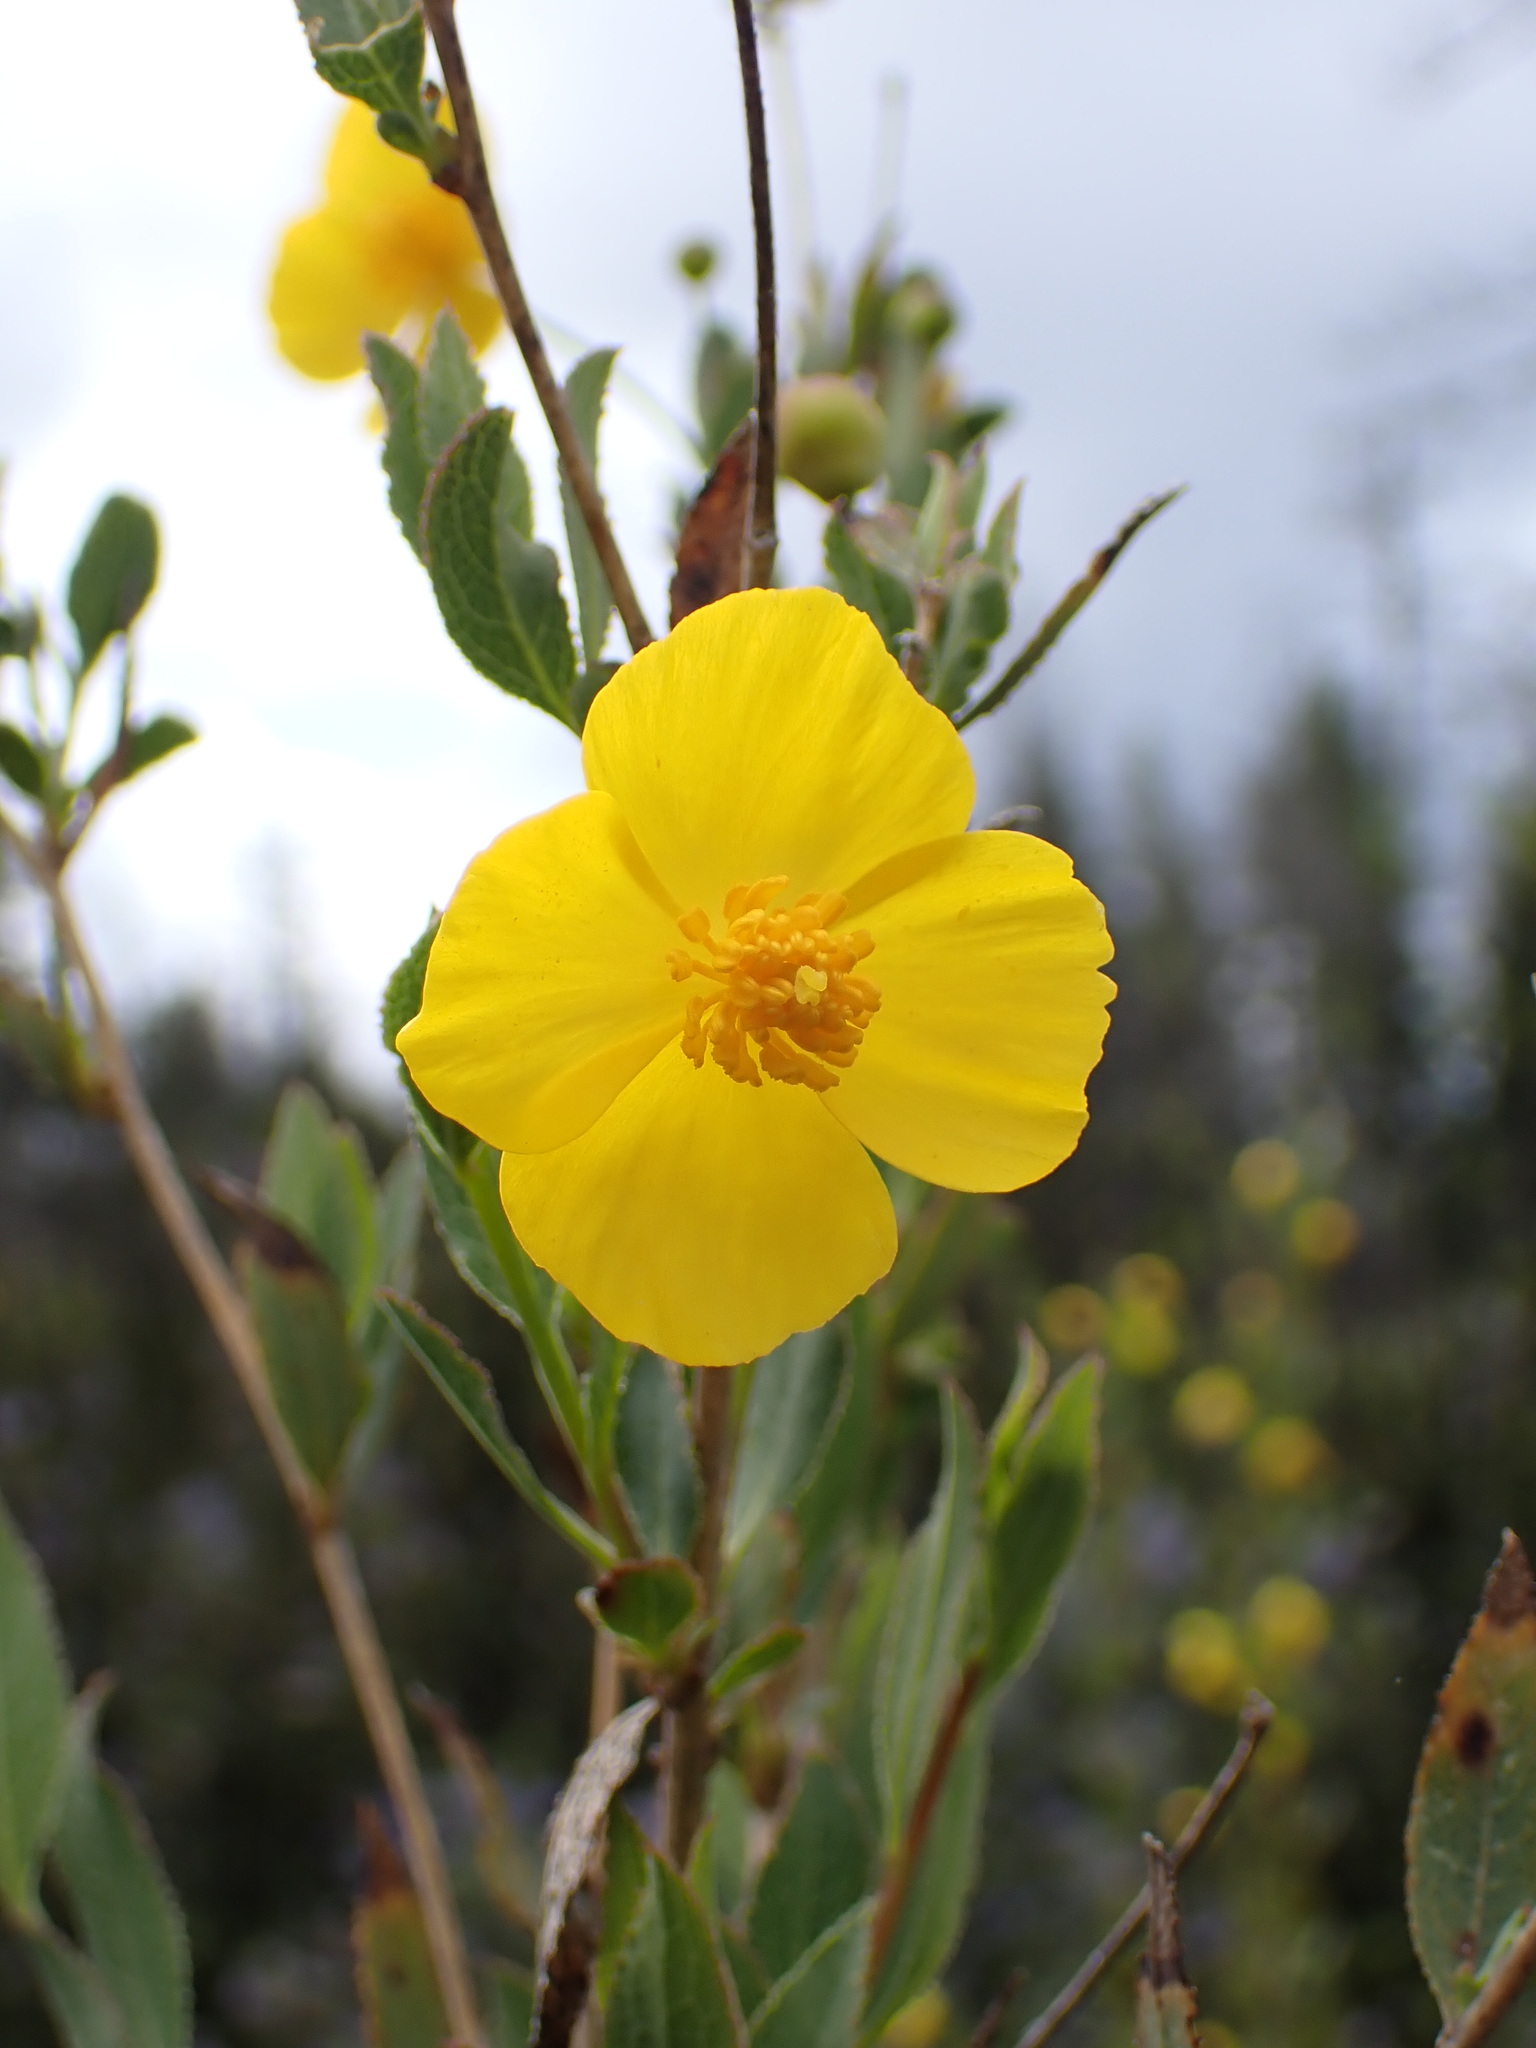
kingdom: Plantae
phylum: Tracheophyta
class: Magnoliopsida
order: Ranunculales
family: Papaveraceae
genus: Dendromecon
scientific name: Dendromecon rigida
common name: Tree poppy
